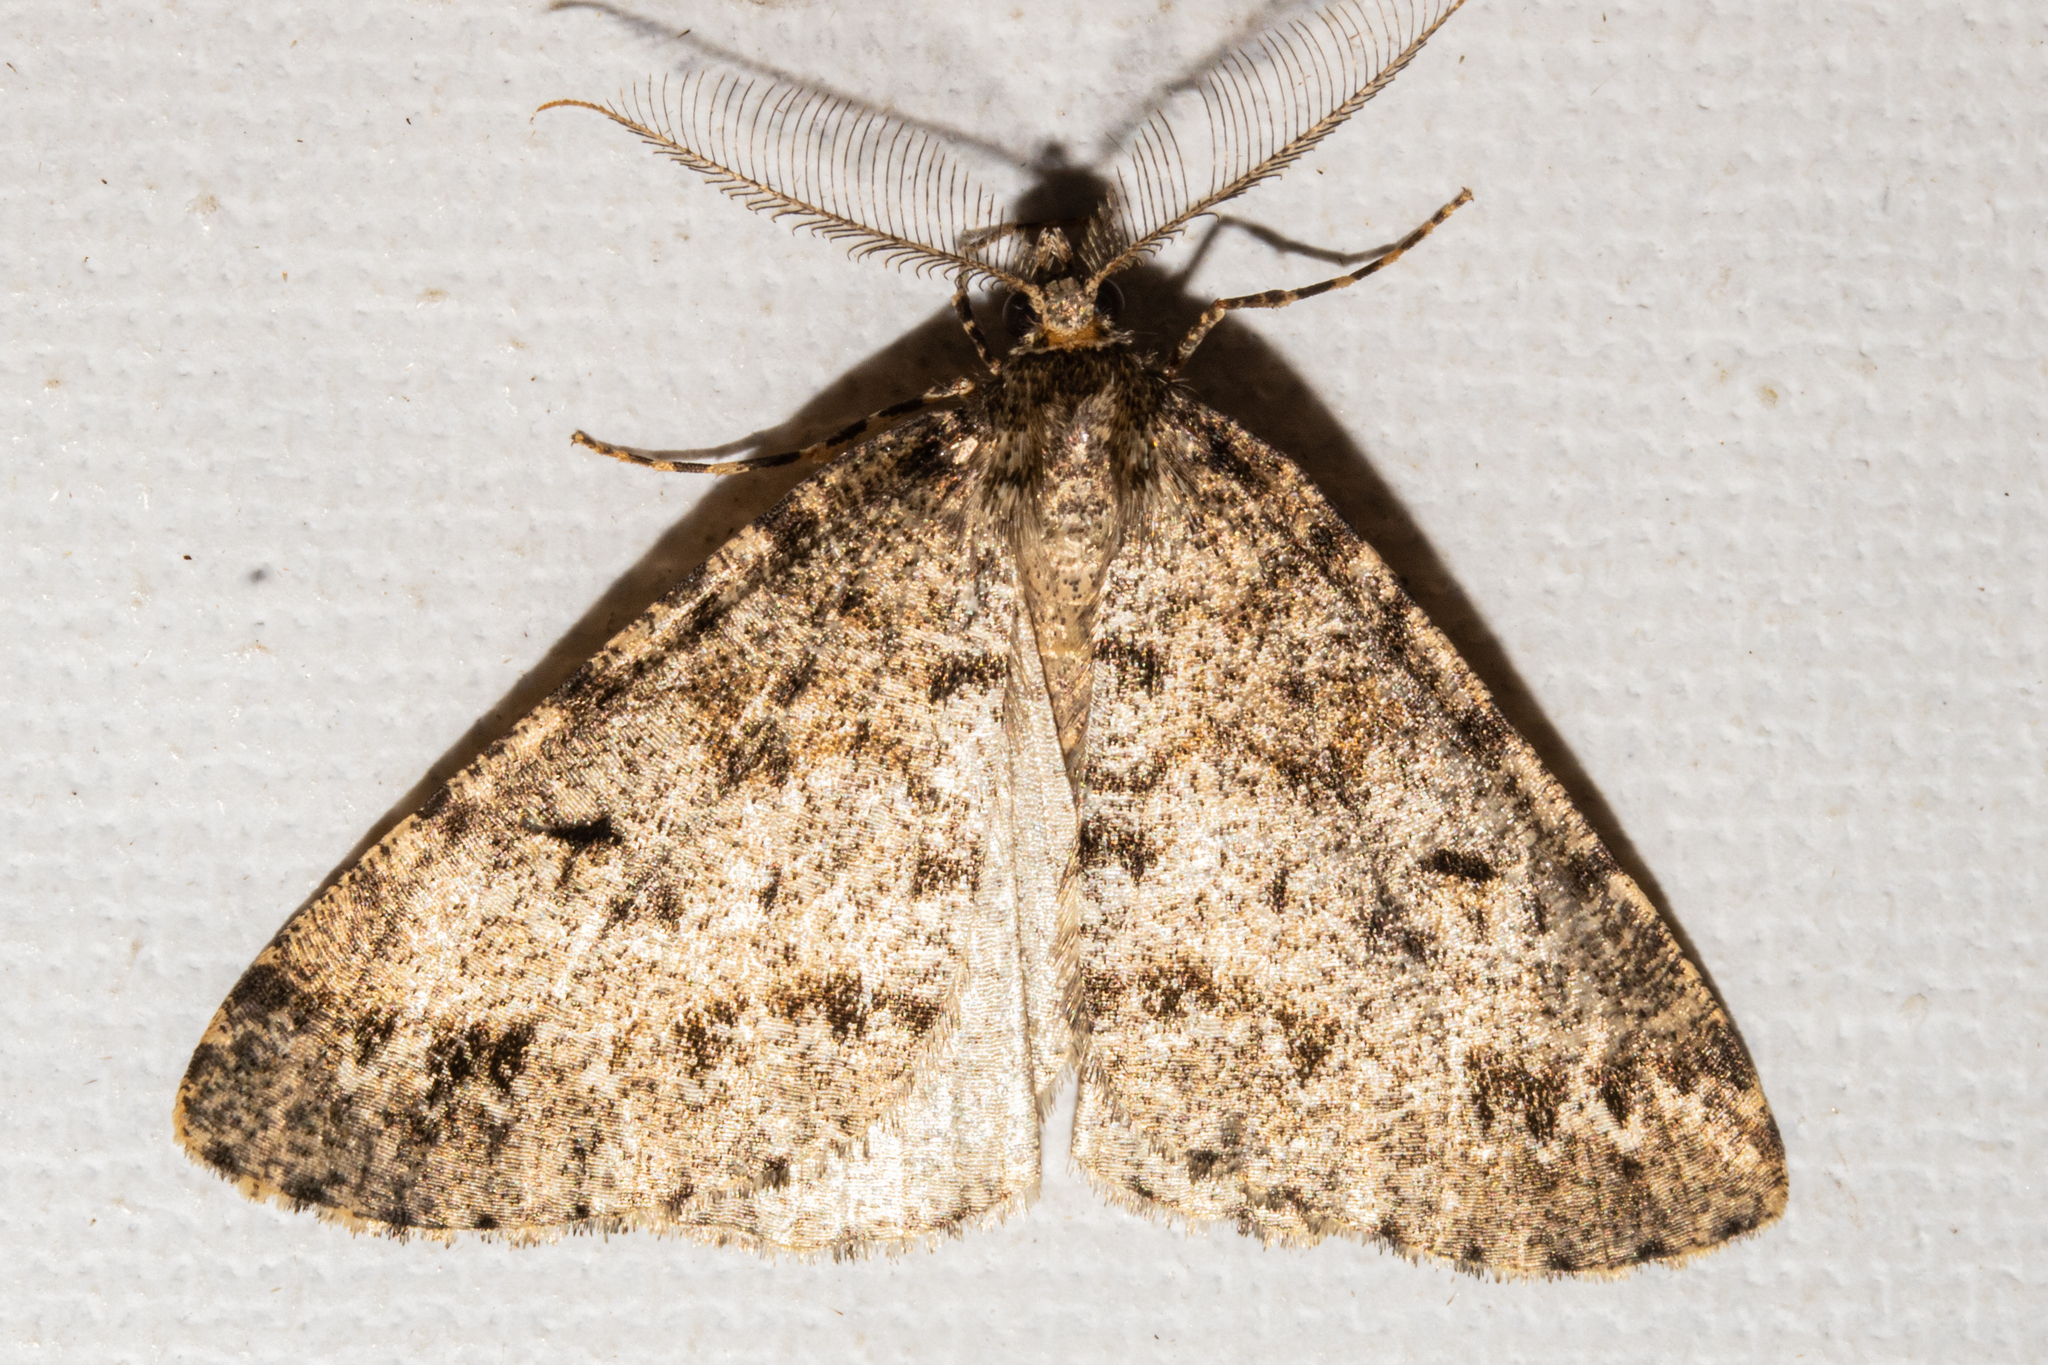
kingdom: Animalia
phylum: Arthropoda
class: Insecta
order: Lepidoptera
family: Geometridae
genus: Pseudocoremia
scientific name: Pseudocoremia terrena
